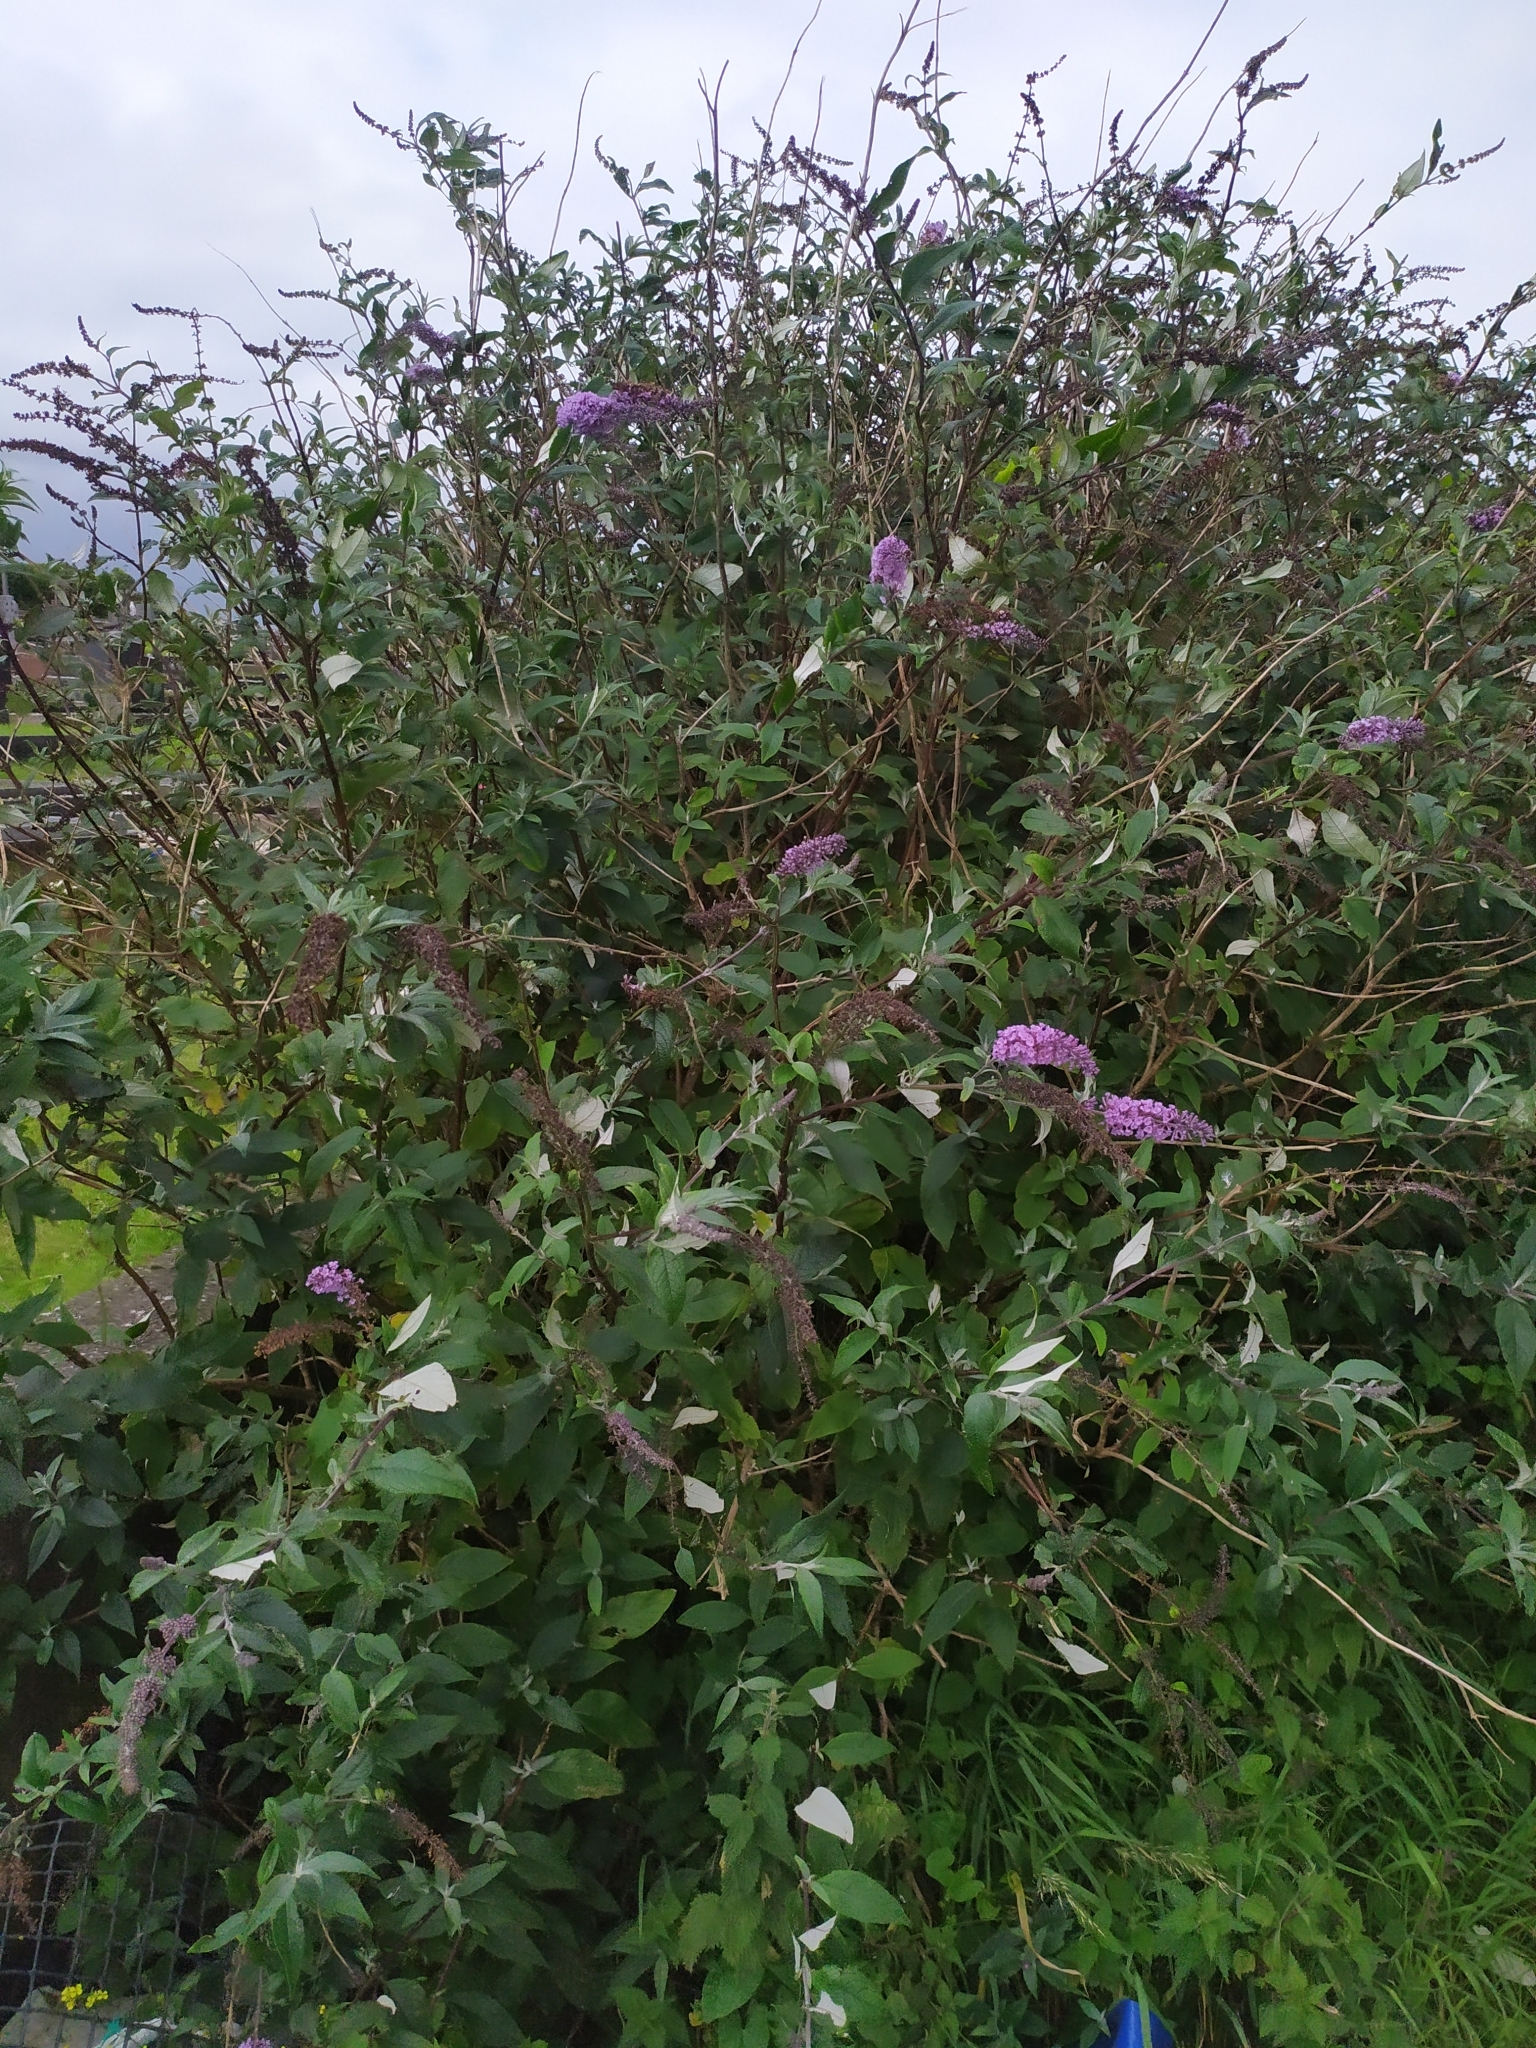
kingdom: Plantae
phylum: Tracheophyta
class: Magnoliopsida
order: Lamiales
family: Scrophulariaceae
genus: Buddleja
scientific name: Buddleja davidii
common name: Butterfly-bush
